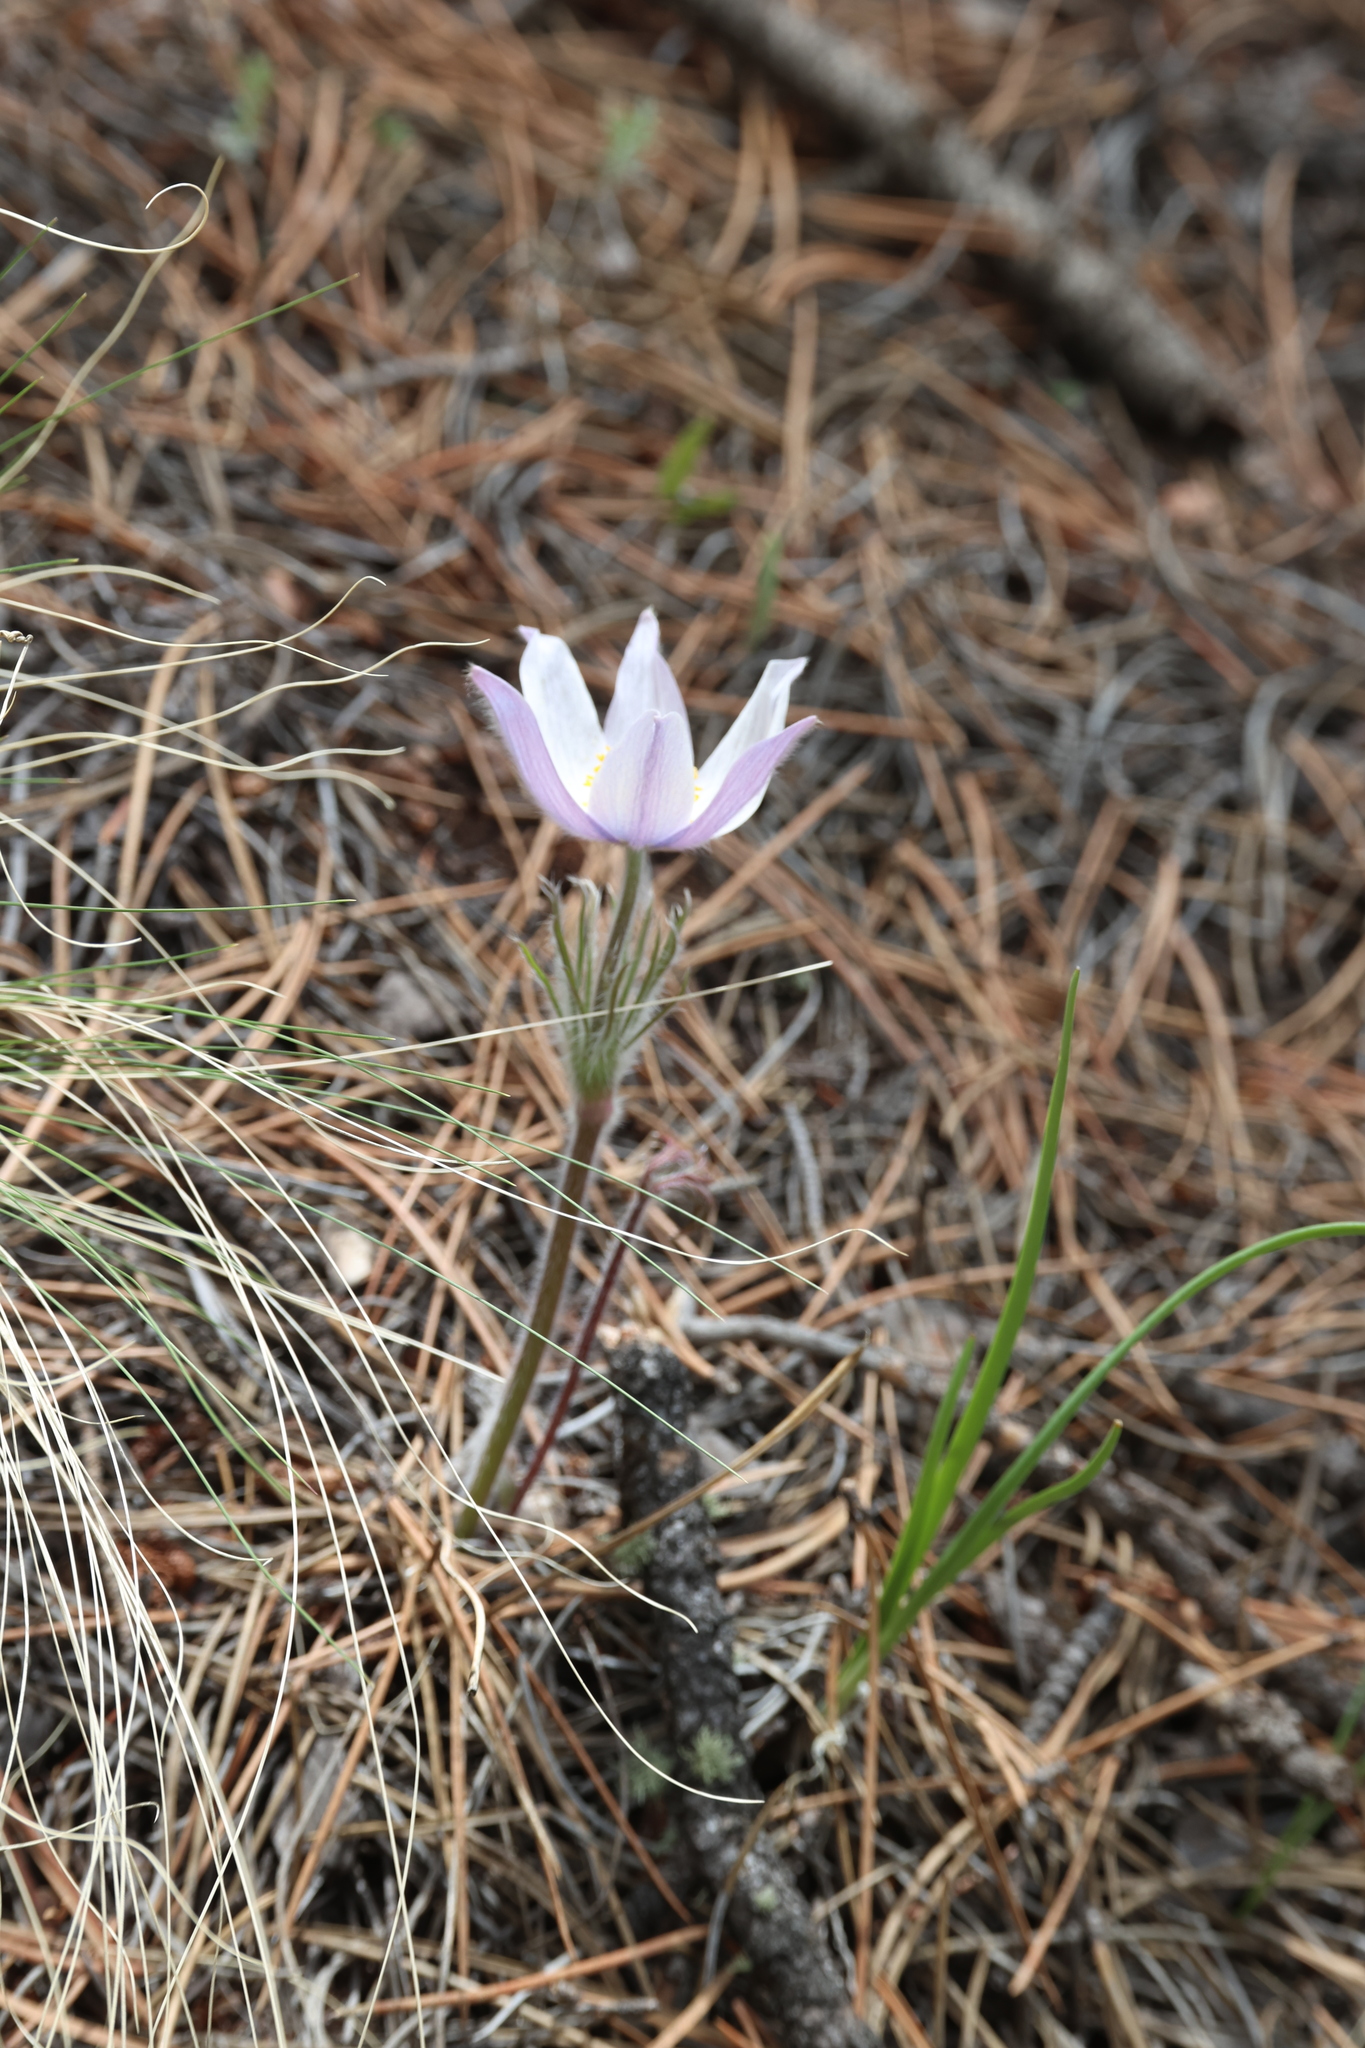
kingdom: Plantae
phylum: Tracheophyta
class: Magnoliopsida
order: Ranunculales
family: Ranunculaceae
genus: Pulsatilla
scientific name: Pulsatilla nuttalliana
